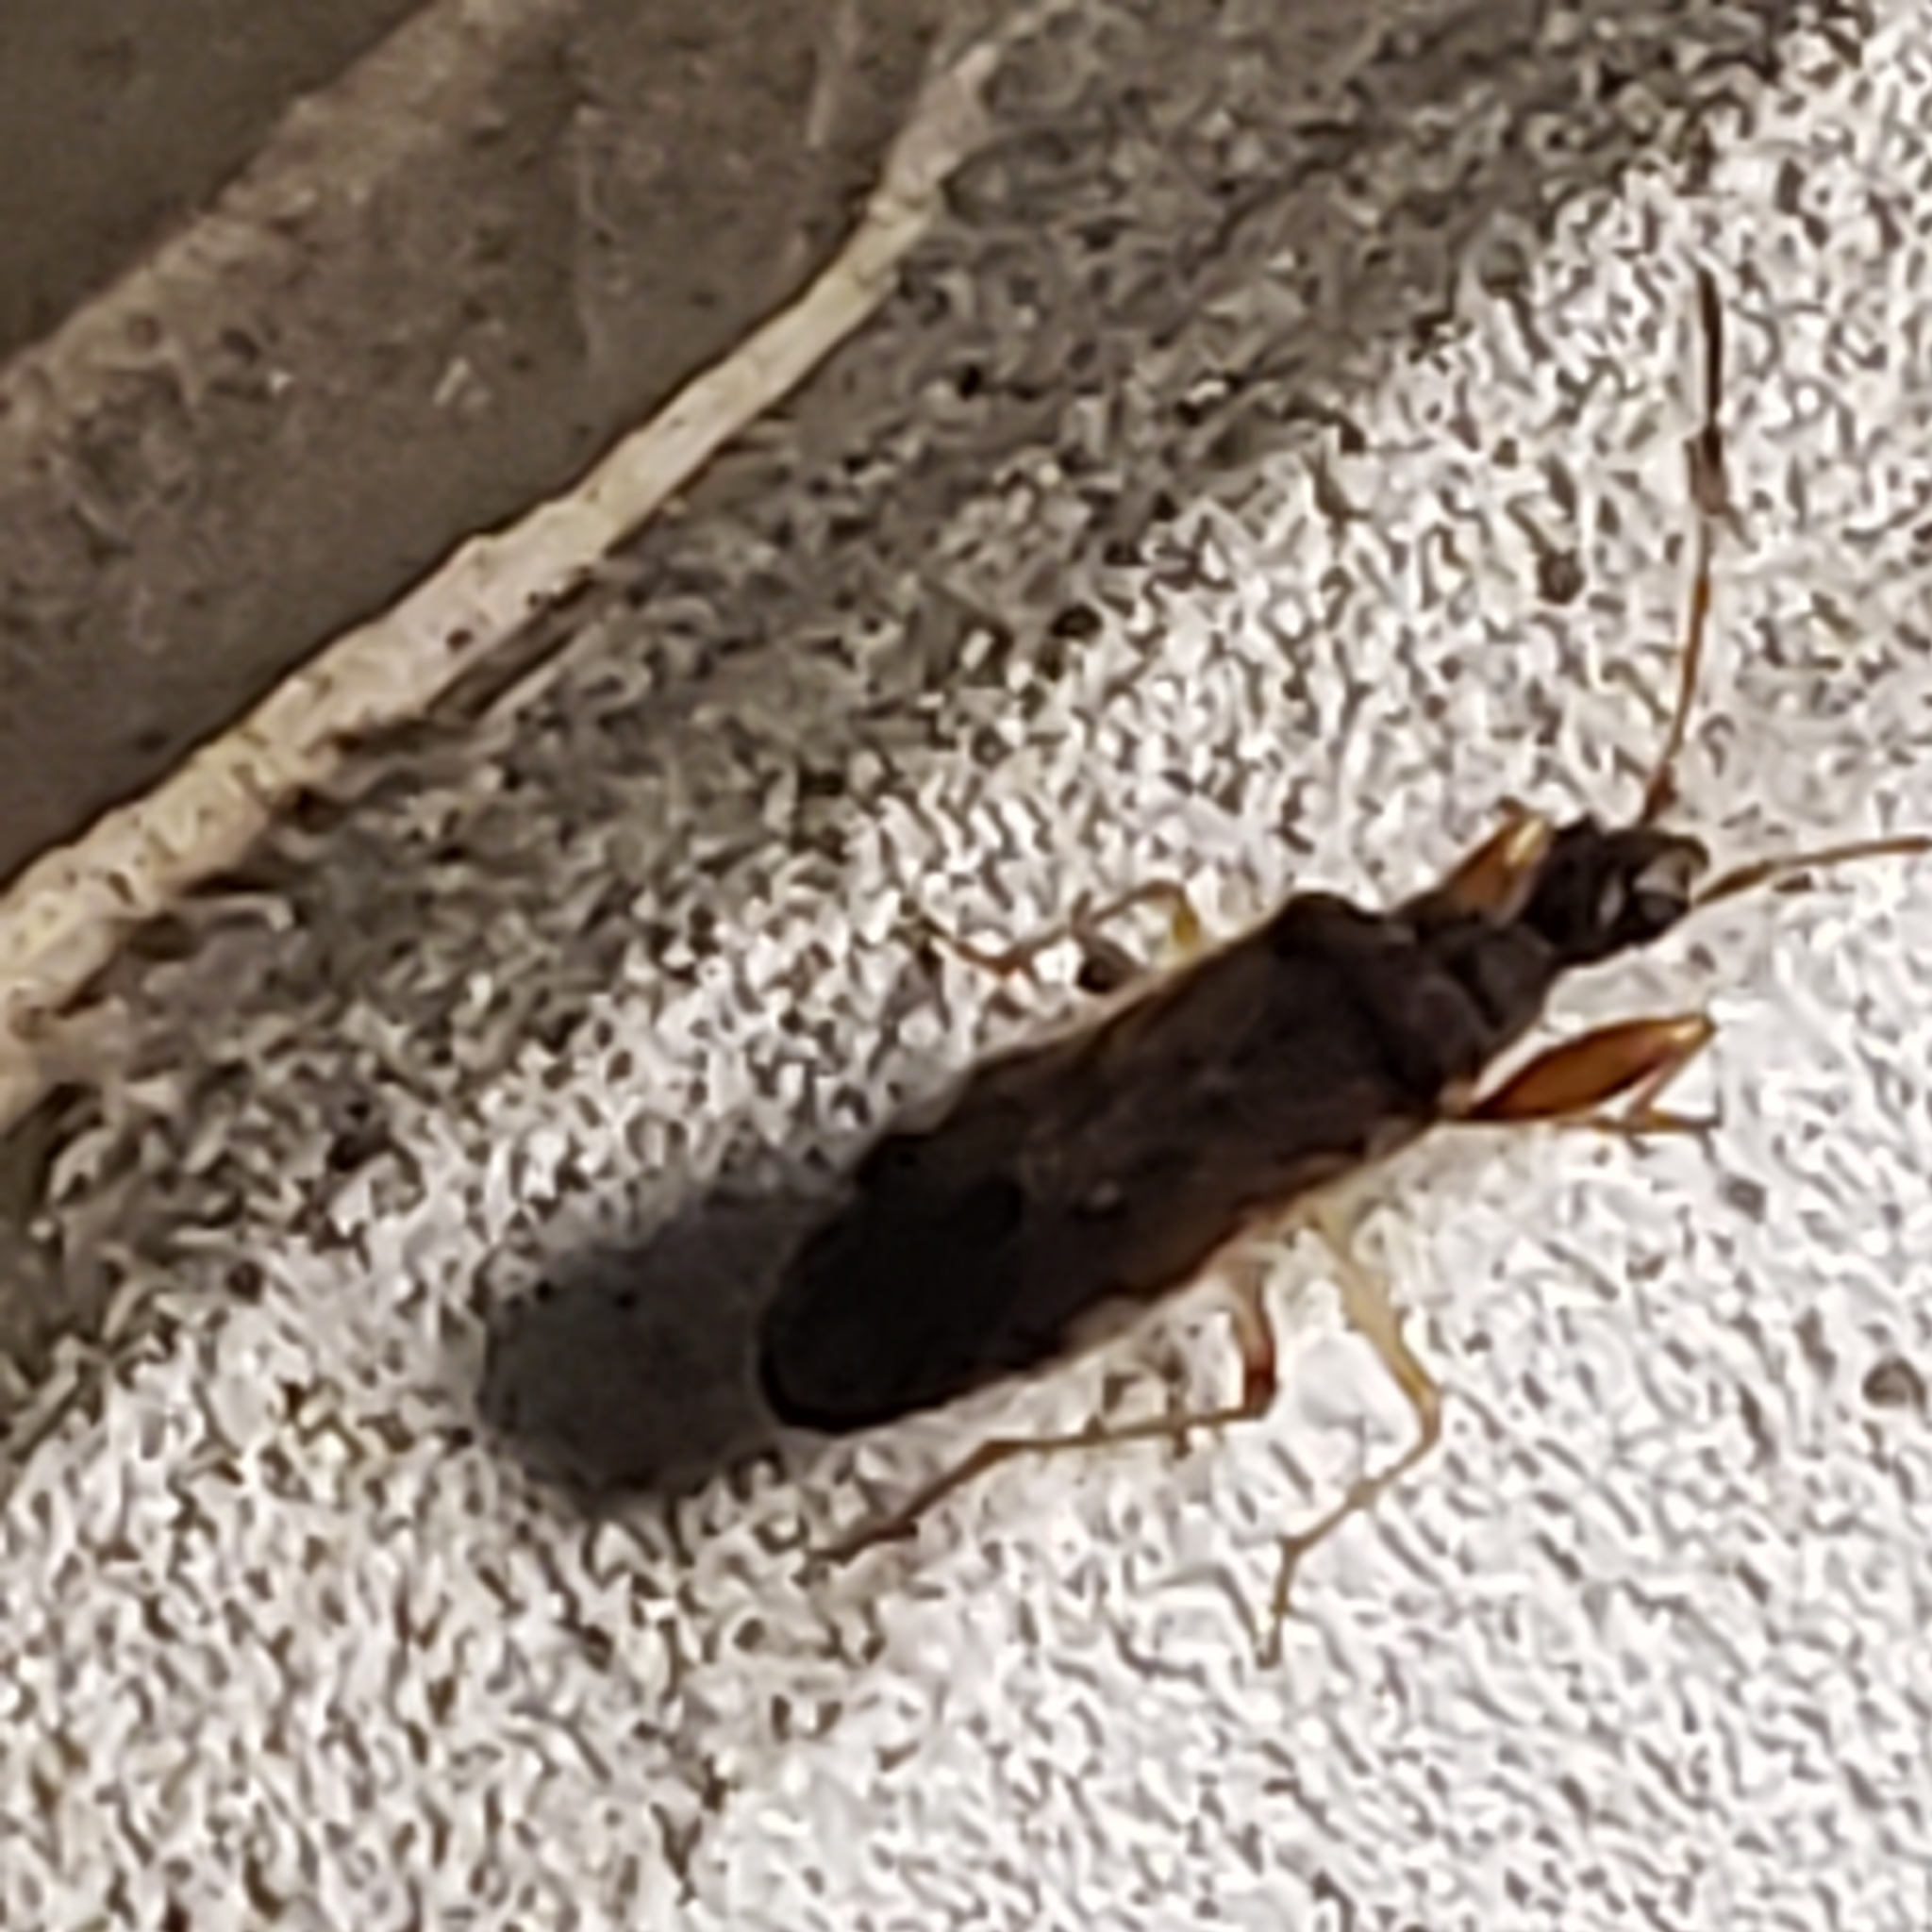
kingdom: Animalia
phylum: Arthropoda
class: Insecta
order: Hemiptera
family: Rhyparochromidae
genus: Heraeus
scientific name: Heraeus plebejus
